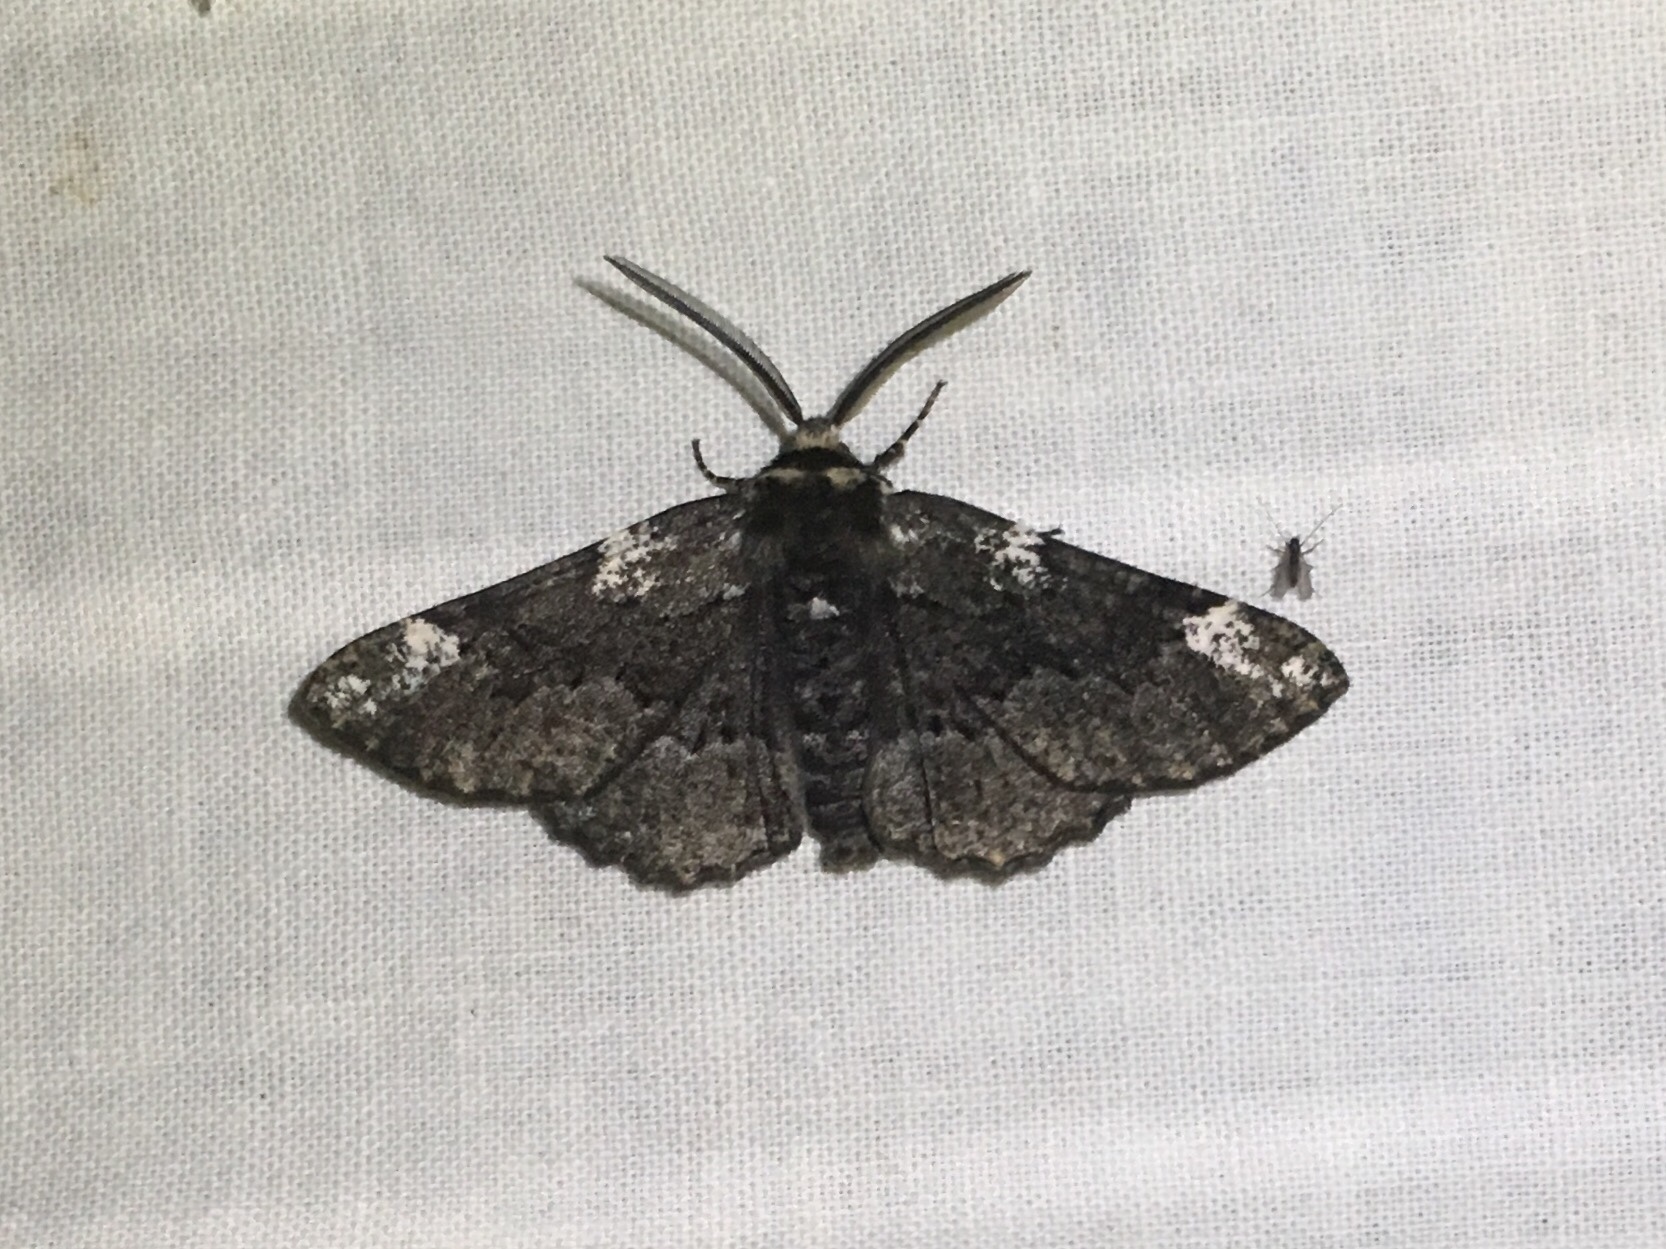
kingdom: Animalia
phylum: Arthropoda
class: Insecta
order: Lepidoptera
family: Geometridae
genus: Phaeoura
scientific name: Phaeoura quernaria
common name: Oak beauty
